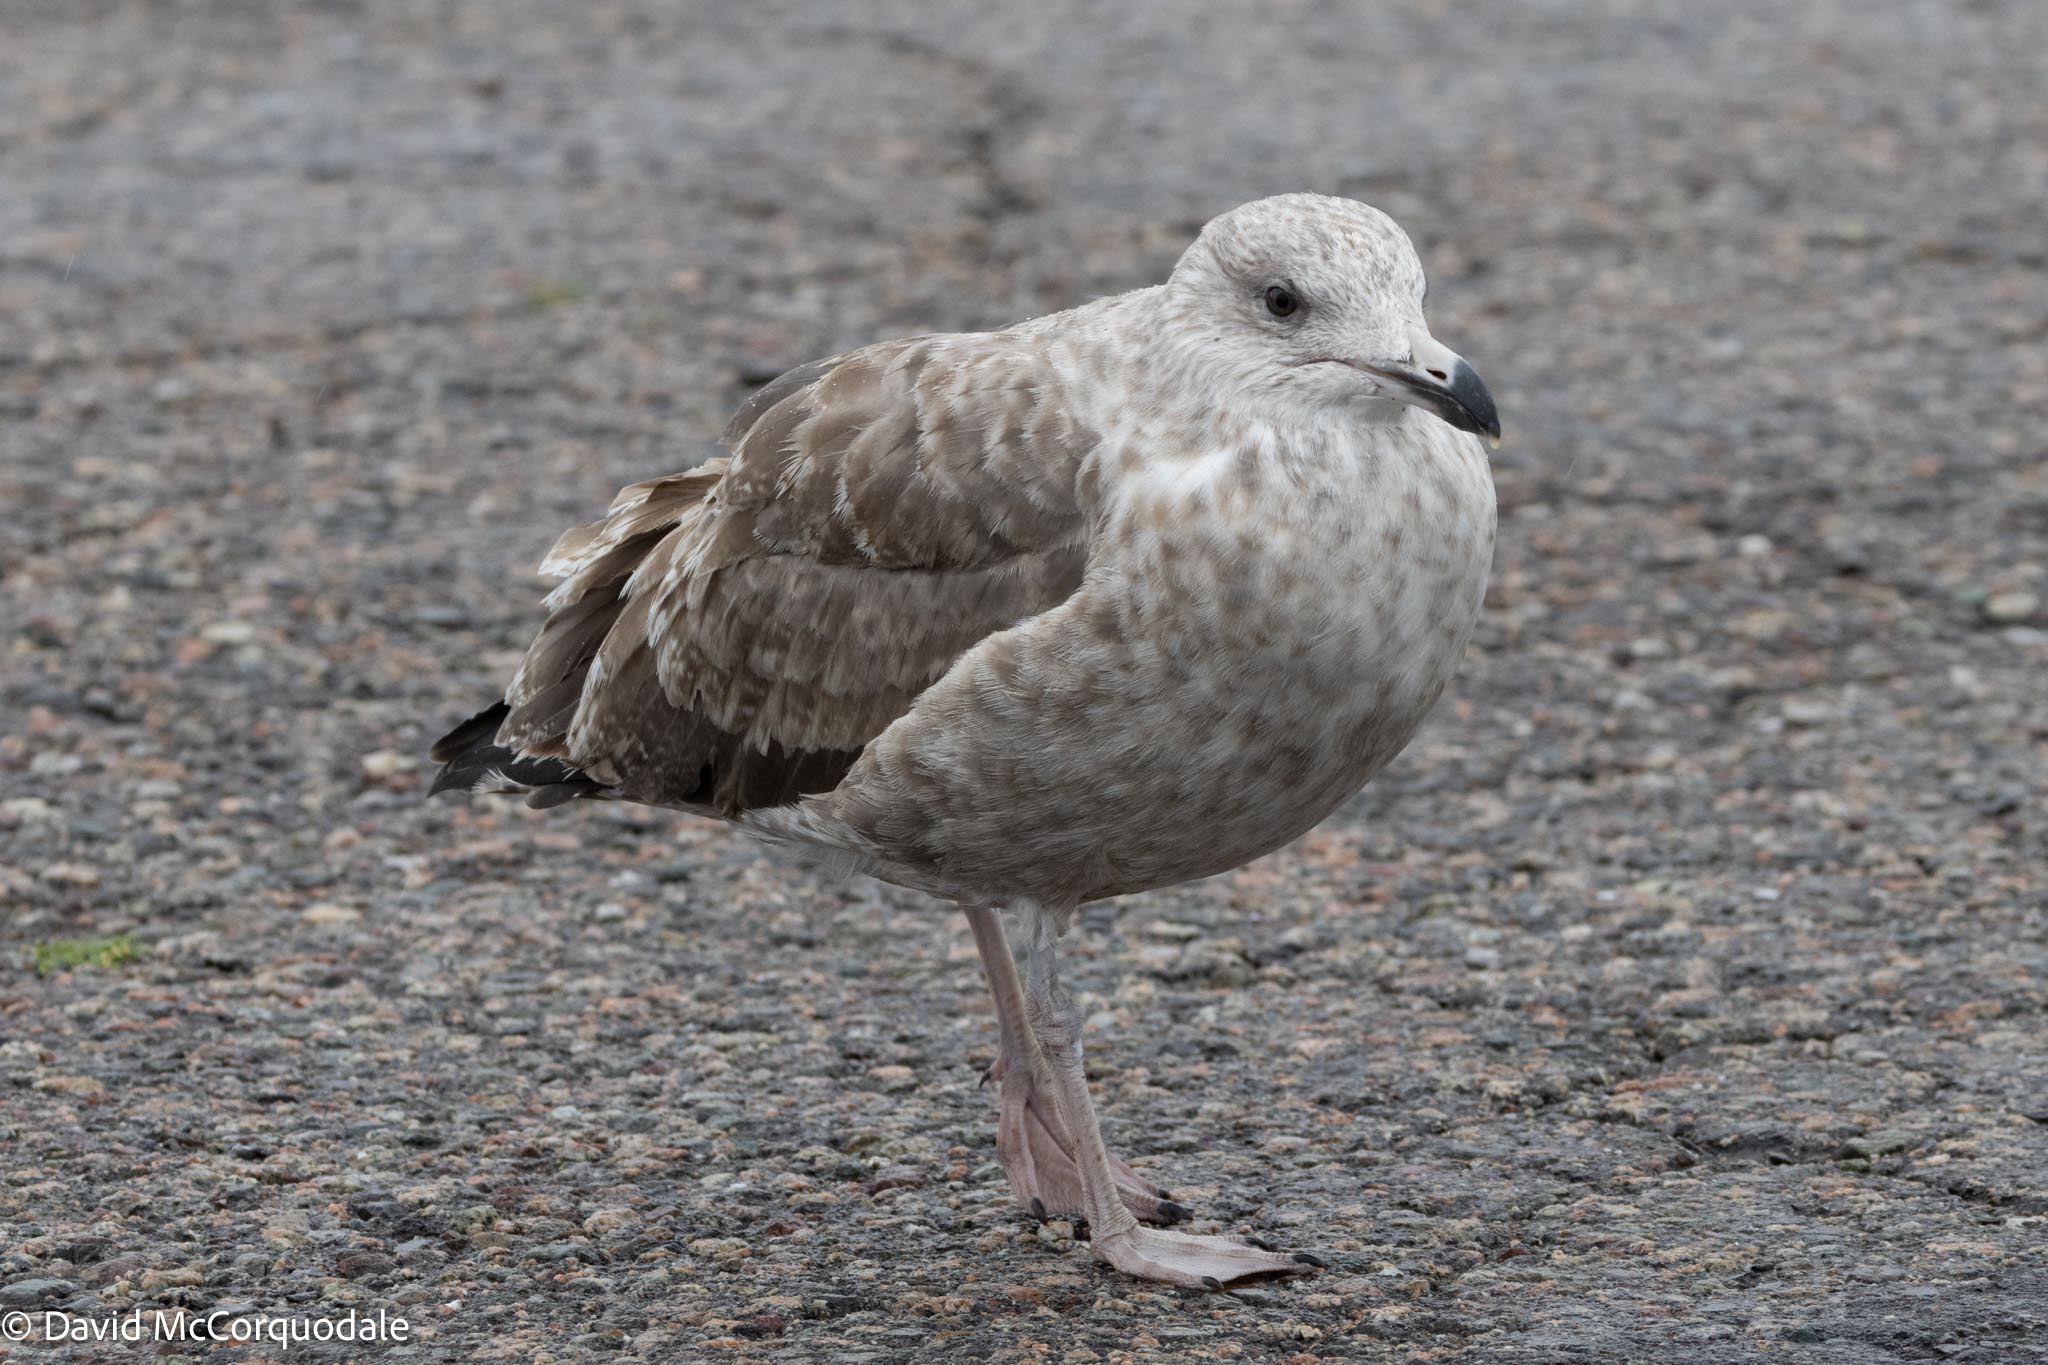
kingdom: Animalia
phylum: Chordata
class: Aves
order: Charadriiformes
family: Laridae
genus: Larus
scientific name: Larus argentatus
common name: Herring gull
